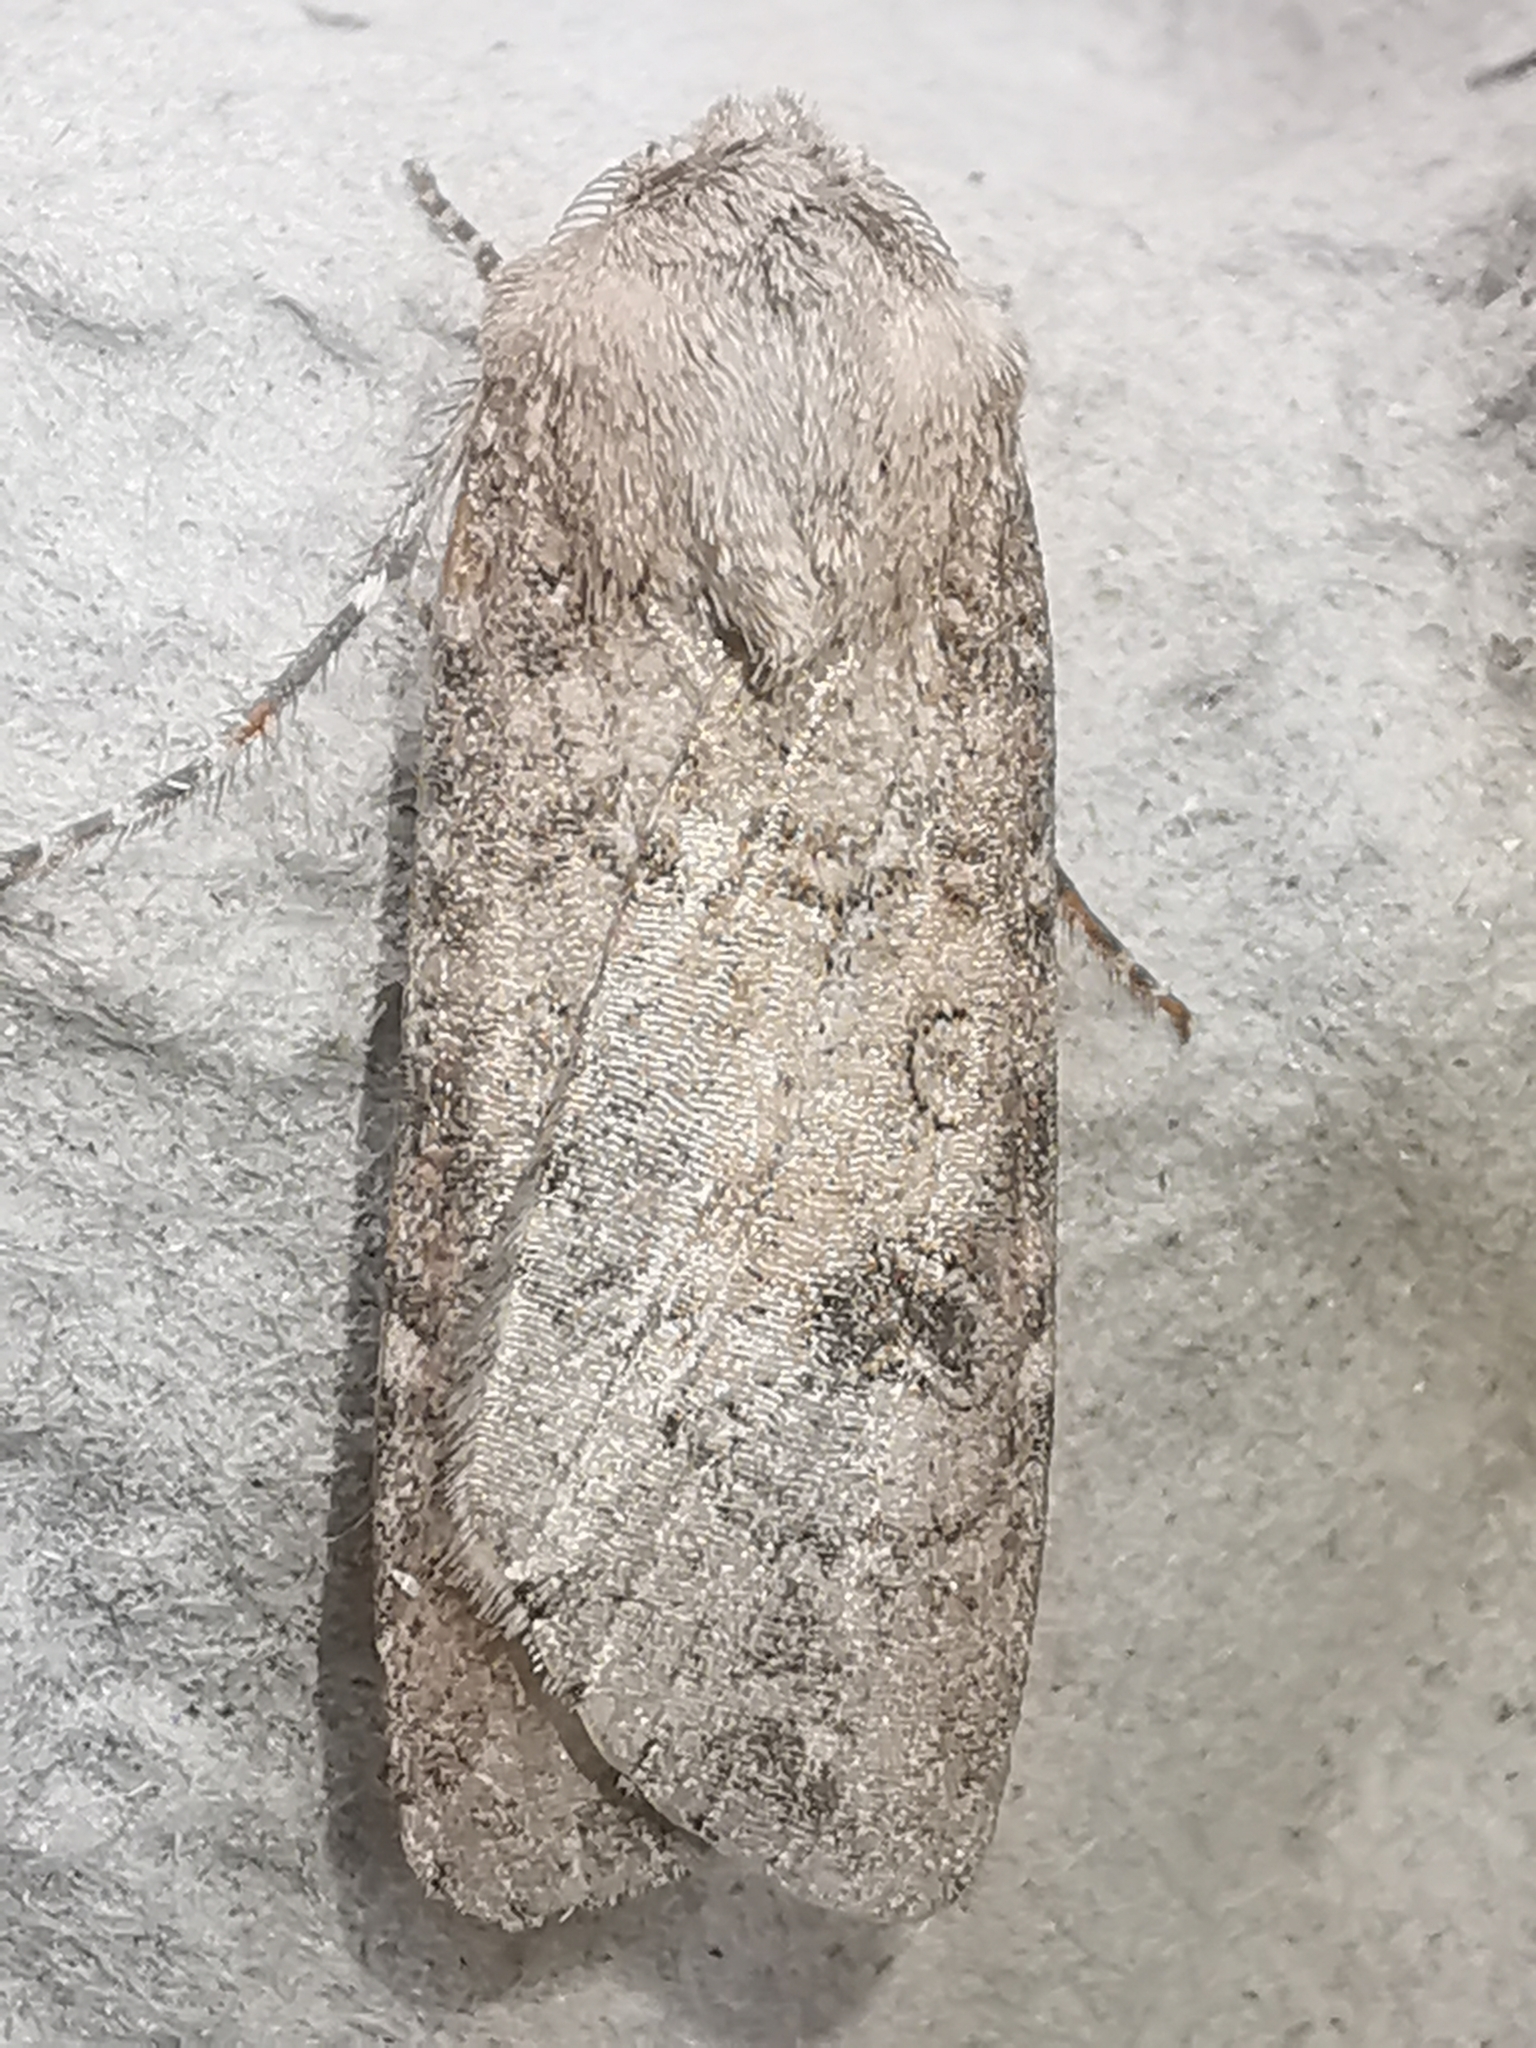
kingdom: Animalia
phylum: Arthropoda
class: Insecta
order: Lepidoptera
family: Noctuidae
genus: Agrotis
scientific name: Agrotis segetum
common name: Turnip moth
